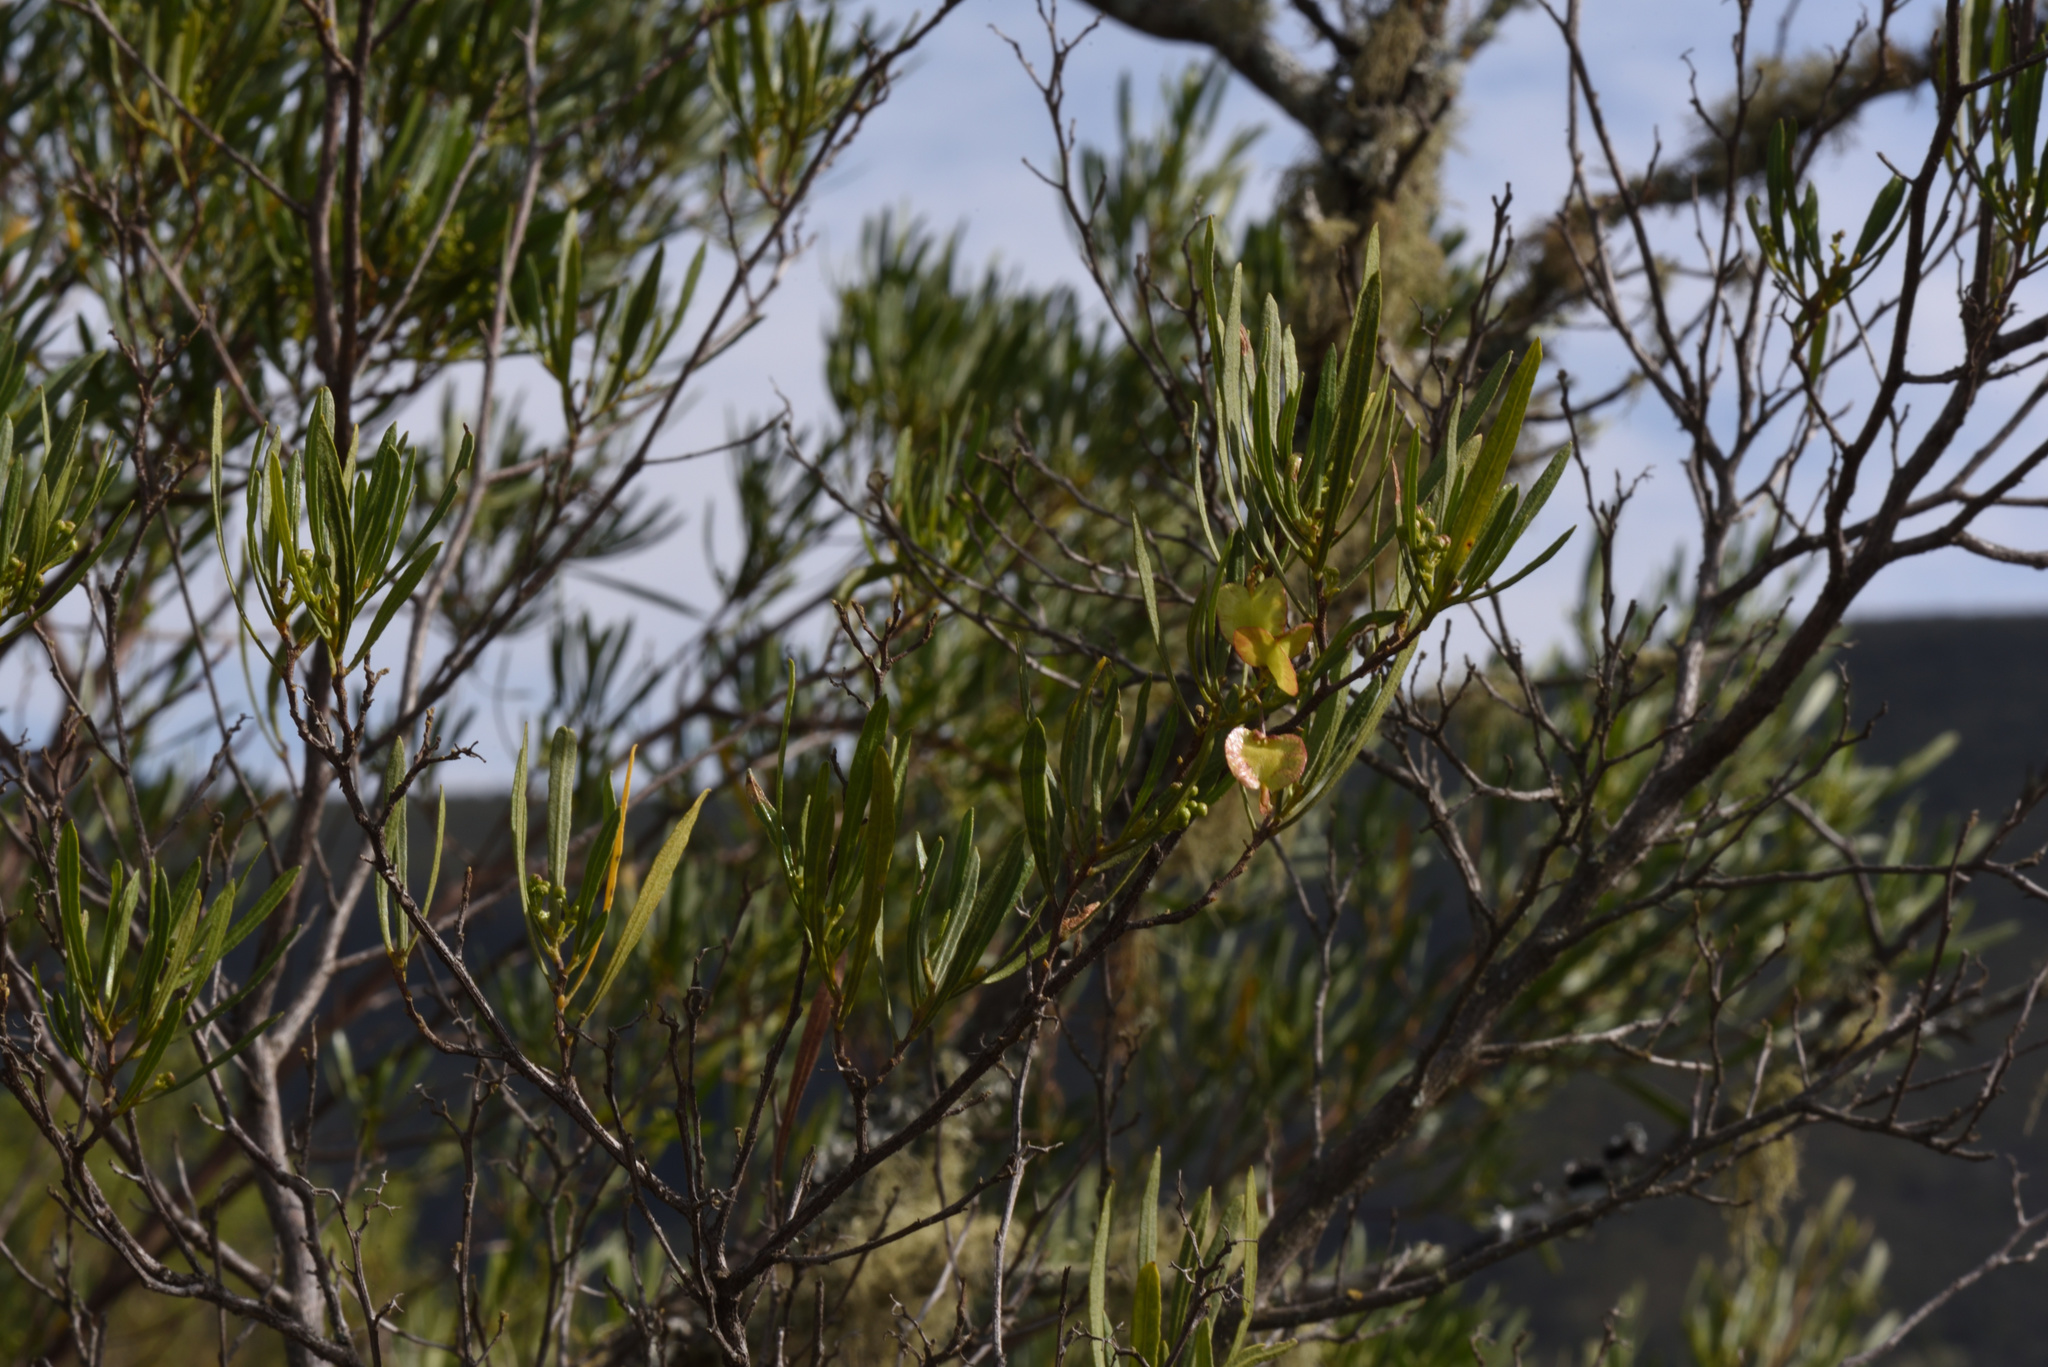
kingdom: Plantae
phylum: Tracheophyta
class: Magnoliopsida
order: Sapindales
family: Sapindaceae
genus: Dodonaea
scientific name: Dodonaea viscosa
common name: Hopbush
